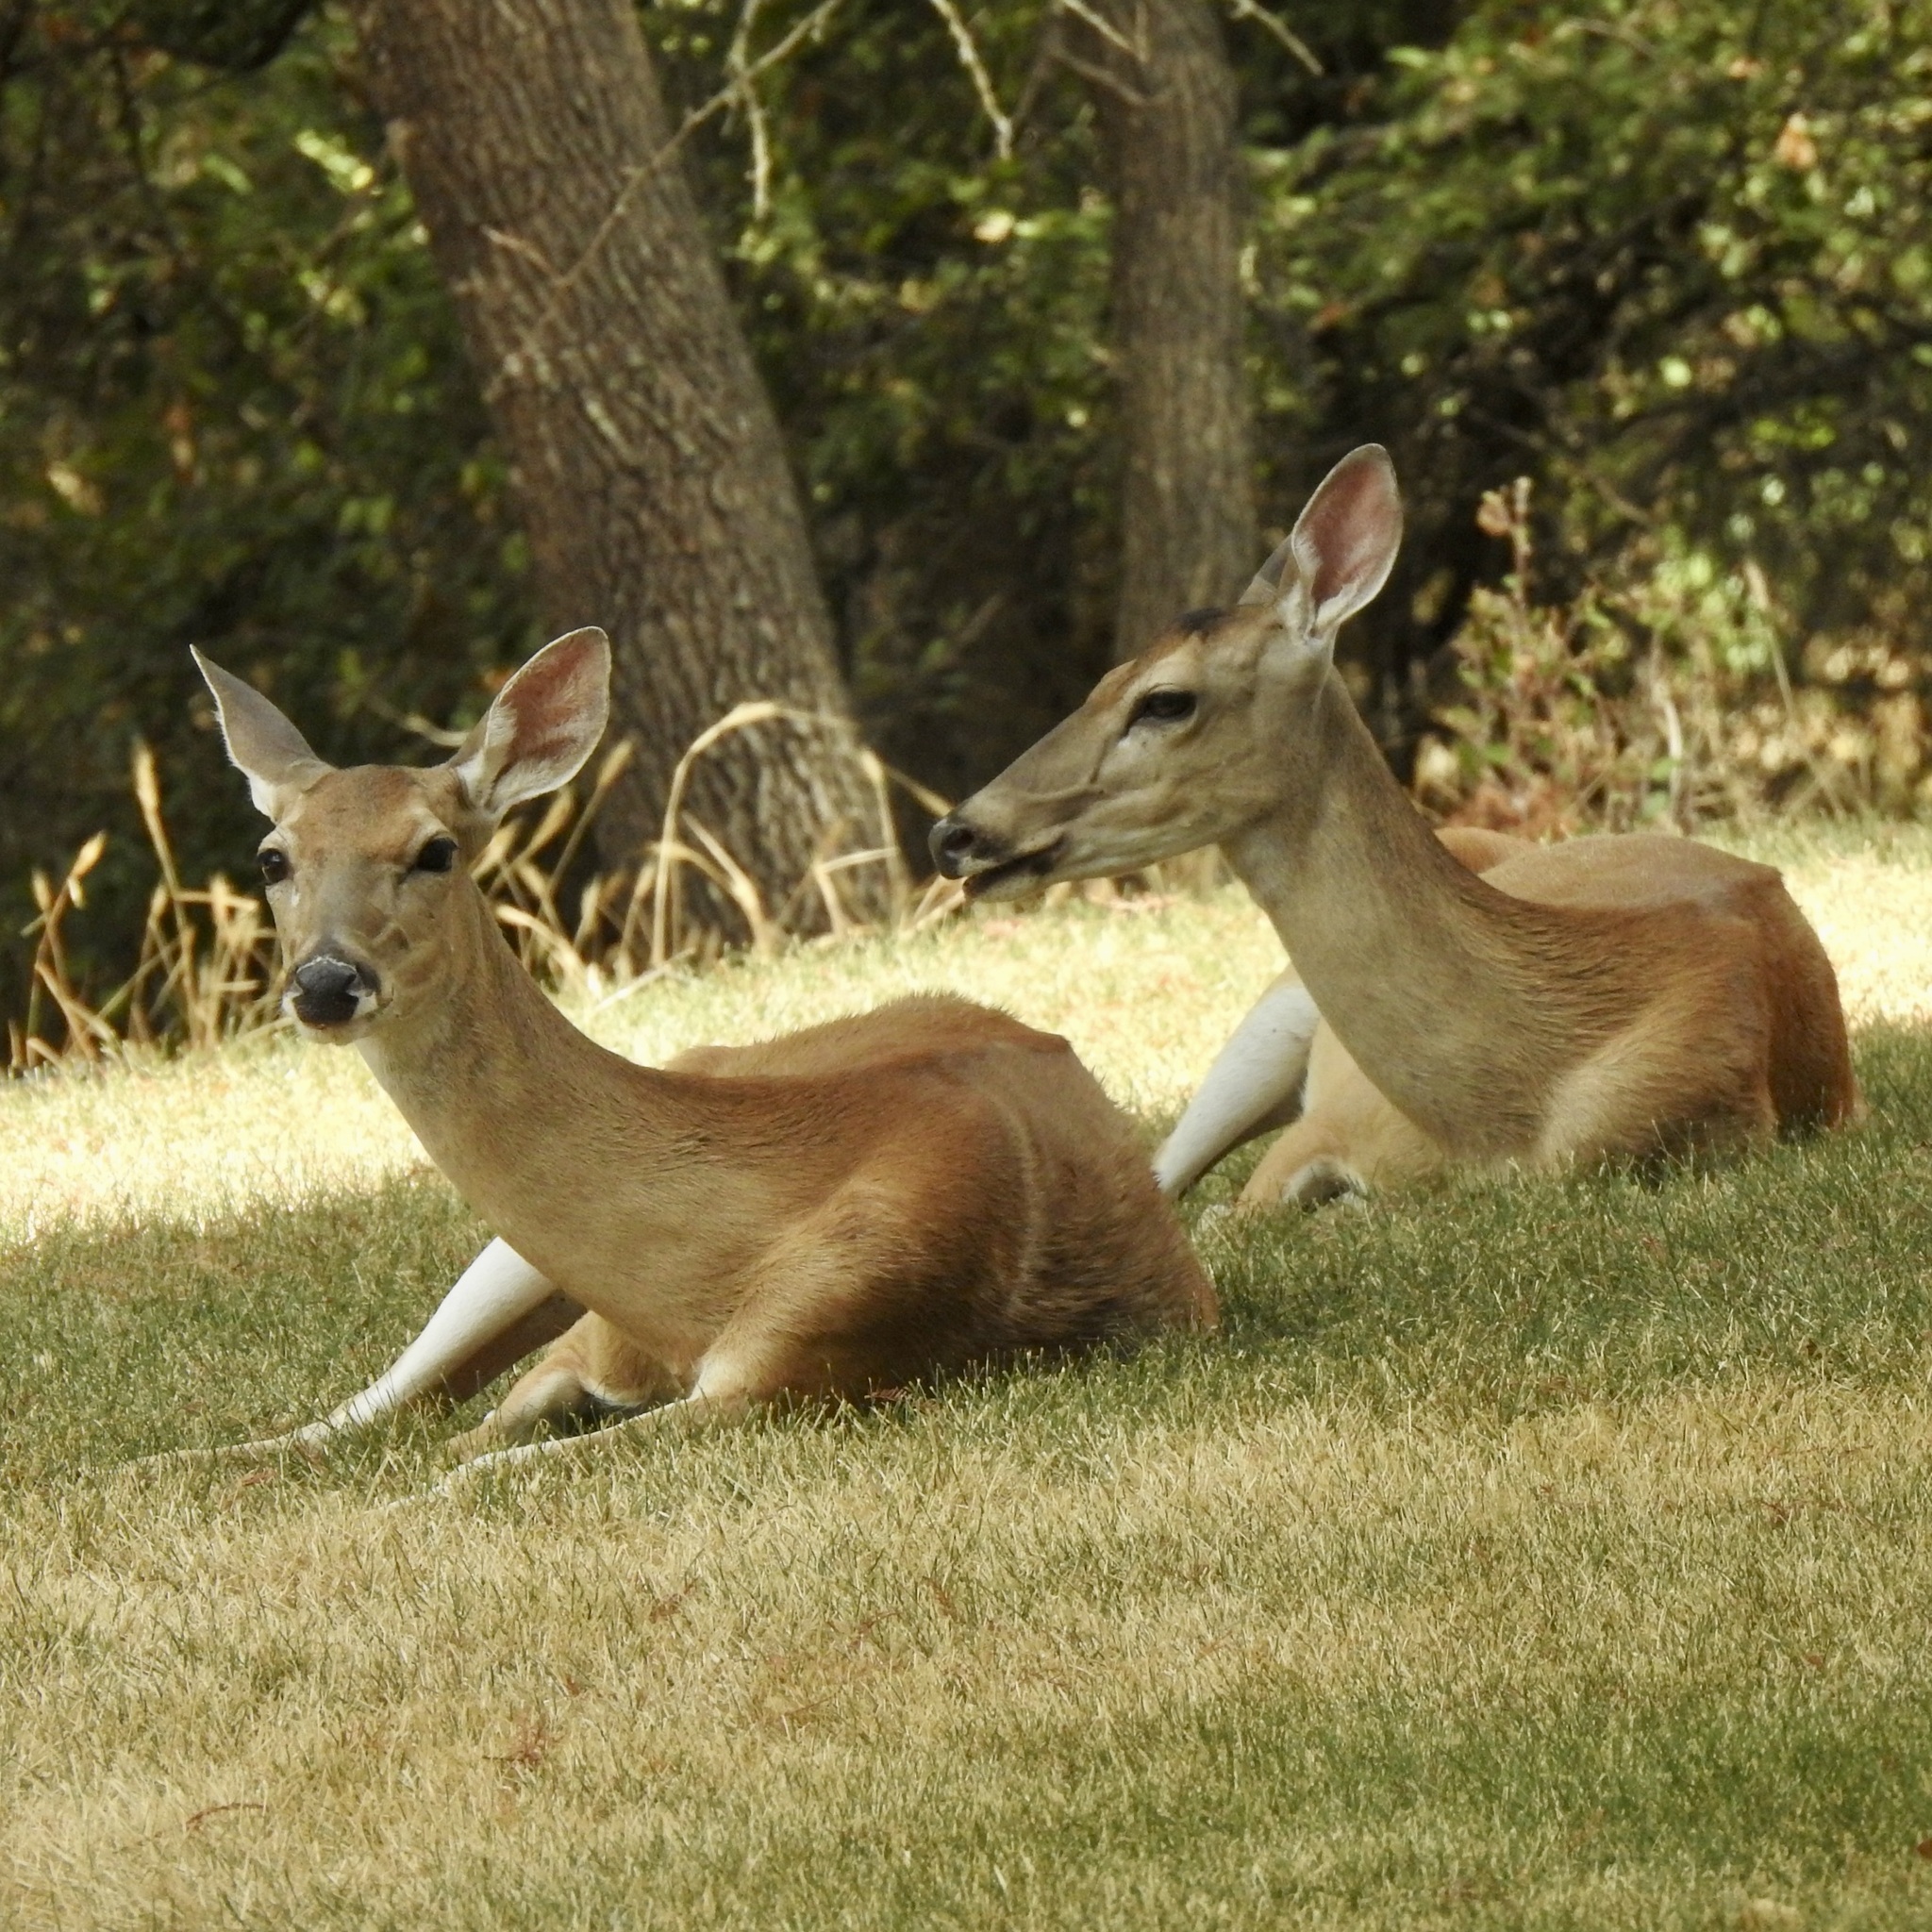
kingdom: Animalia
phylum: Chordata
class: Mammalia
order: Artiodactyla
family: Cervidae
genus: Odocoileus
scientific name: Odocoileus virginianus
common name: White-tailed deer
